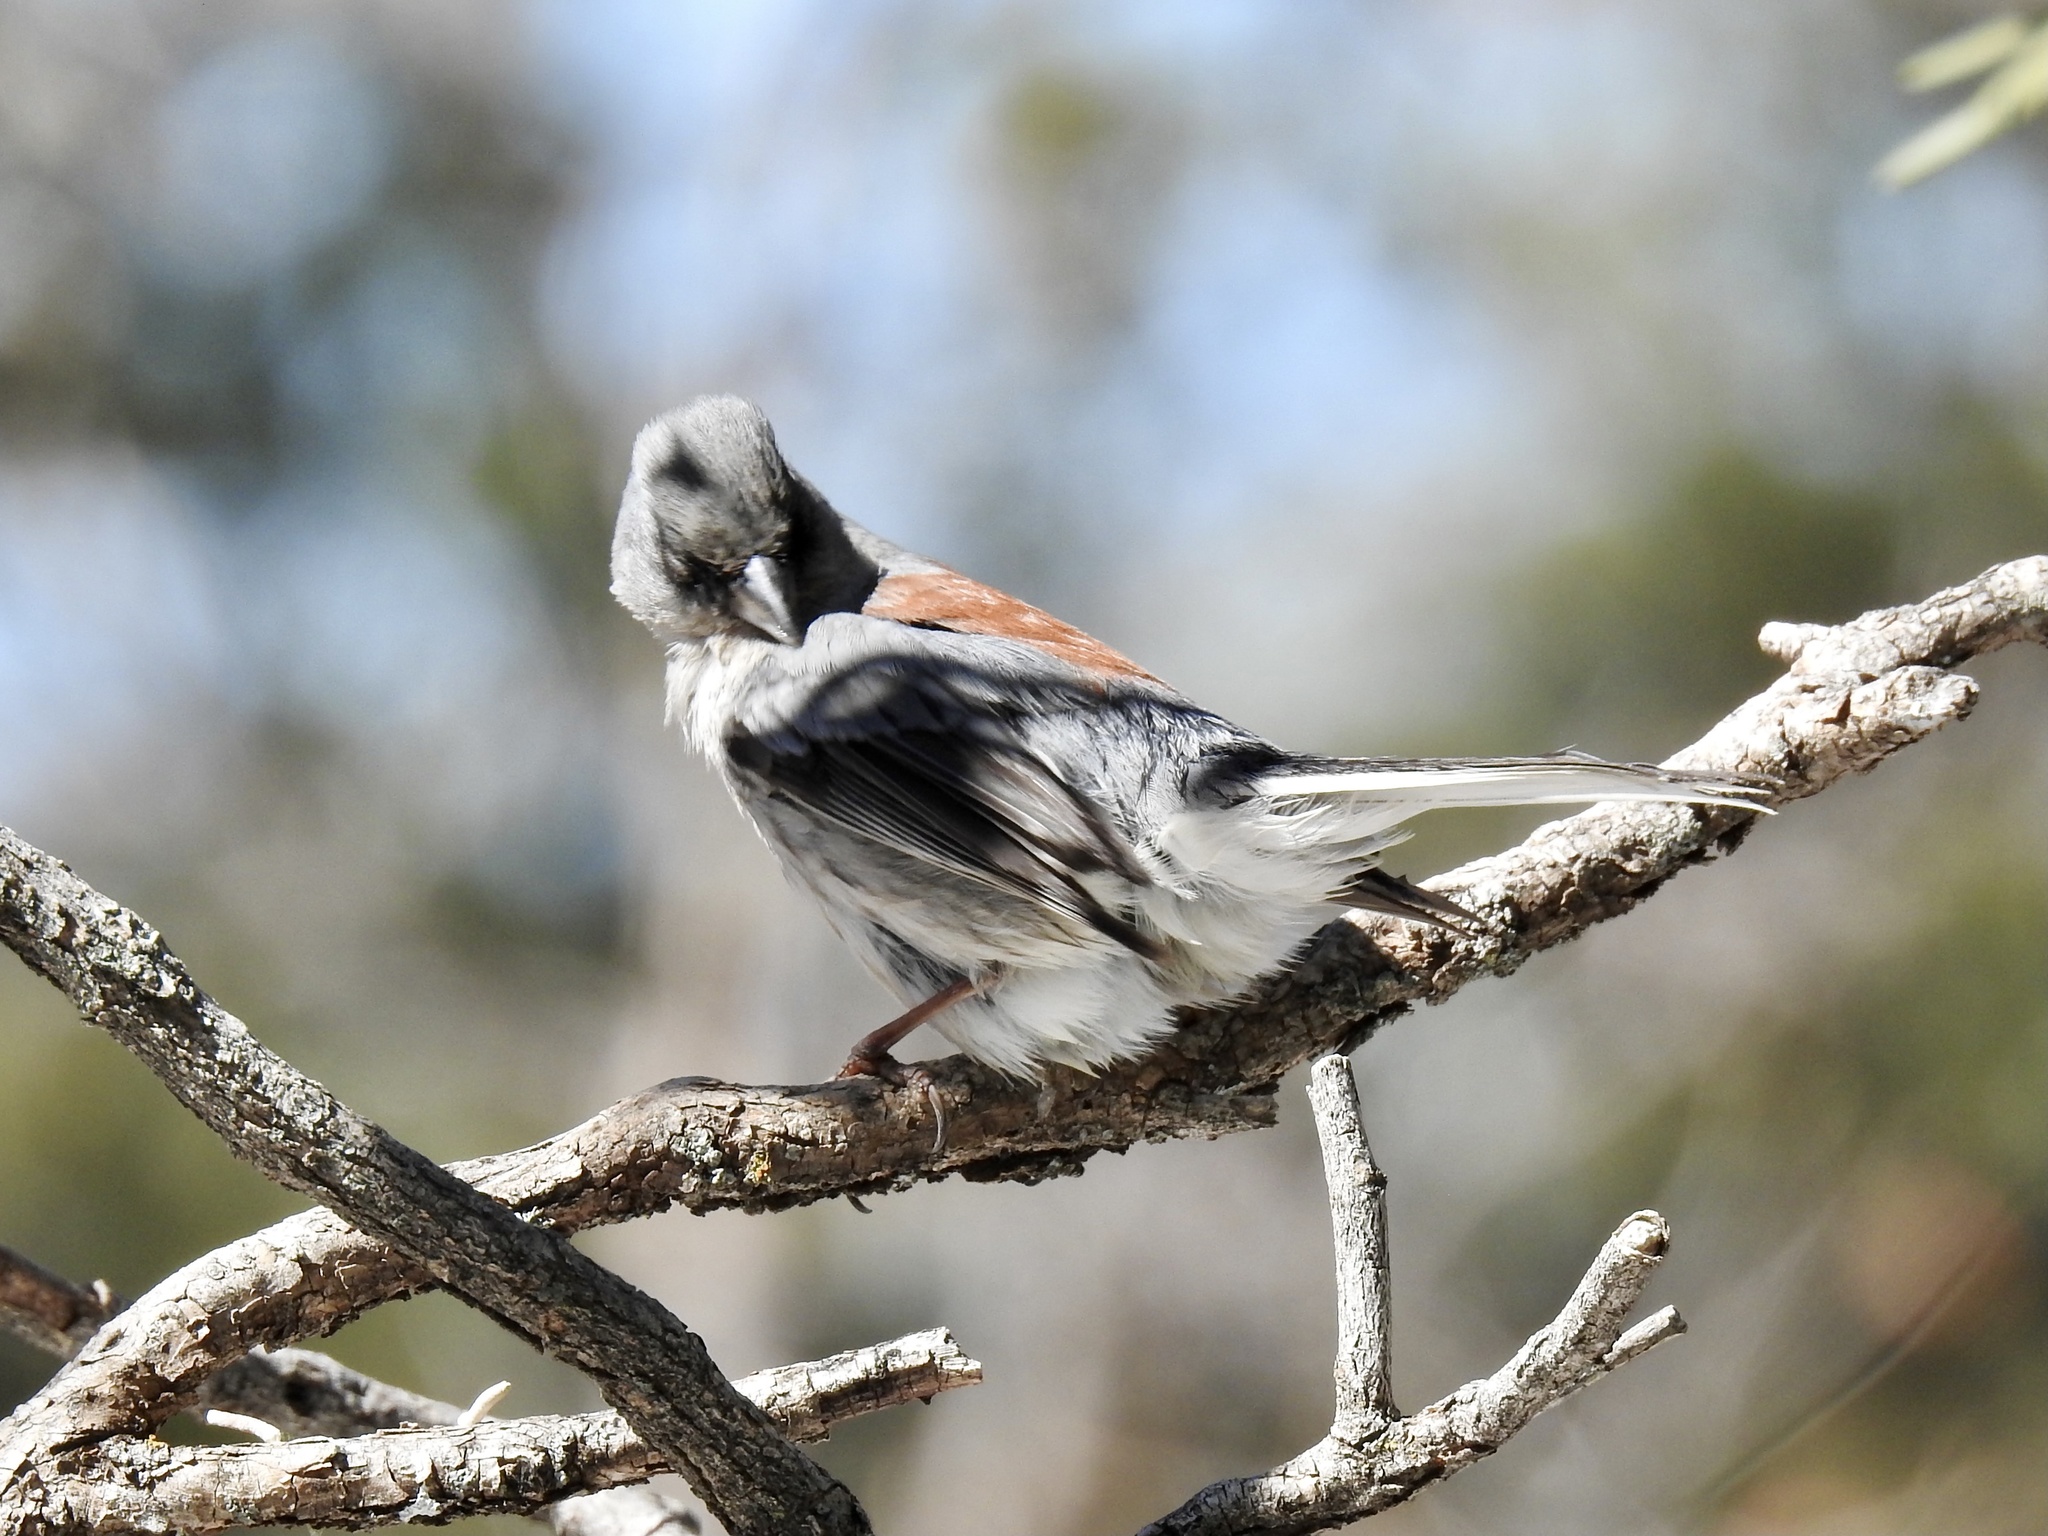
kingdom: Animalia
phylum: Chordata
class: Aves
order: Passeriformes
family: Passerellidae
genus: Junco
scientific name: Junco hyemalis
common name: Dark-eyed junco
